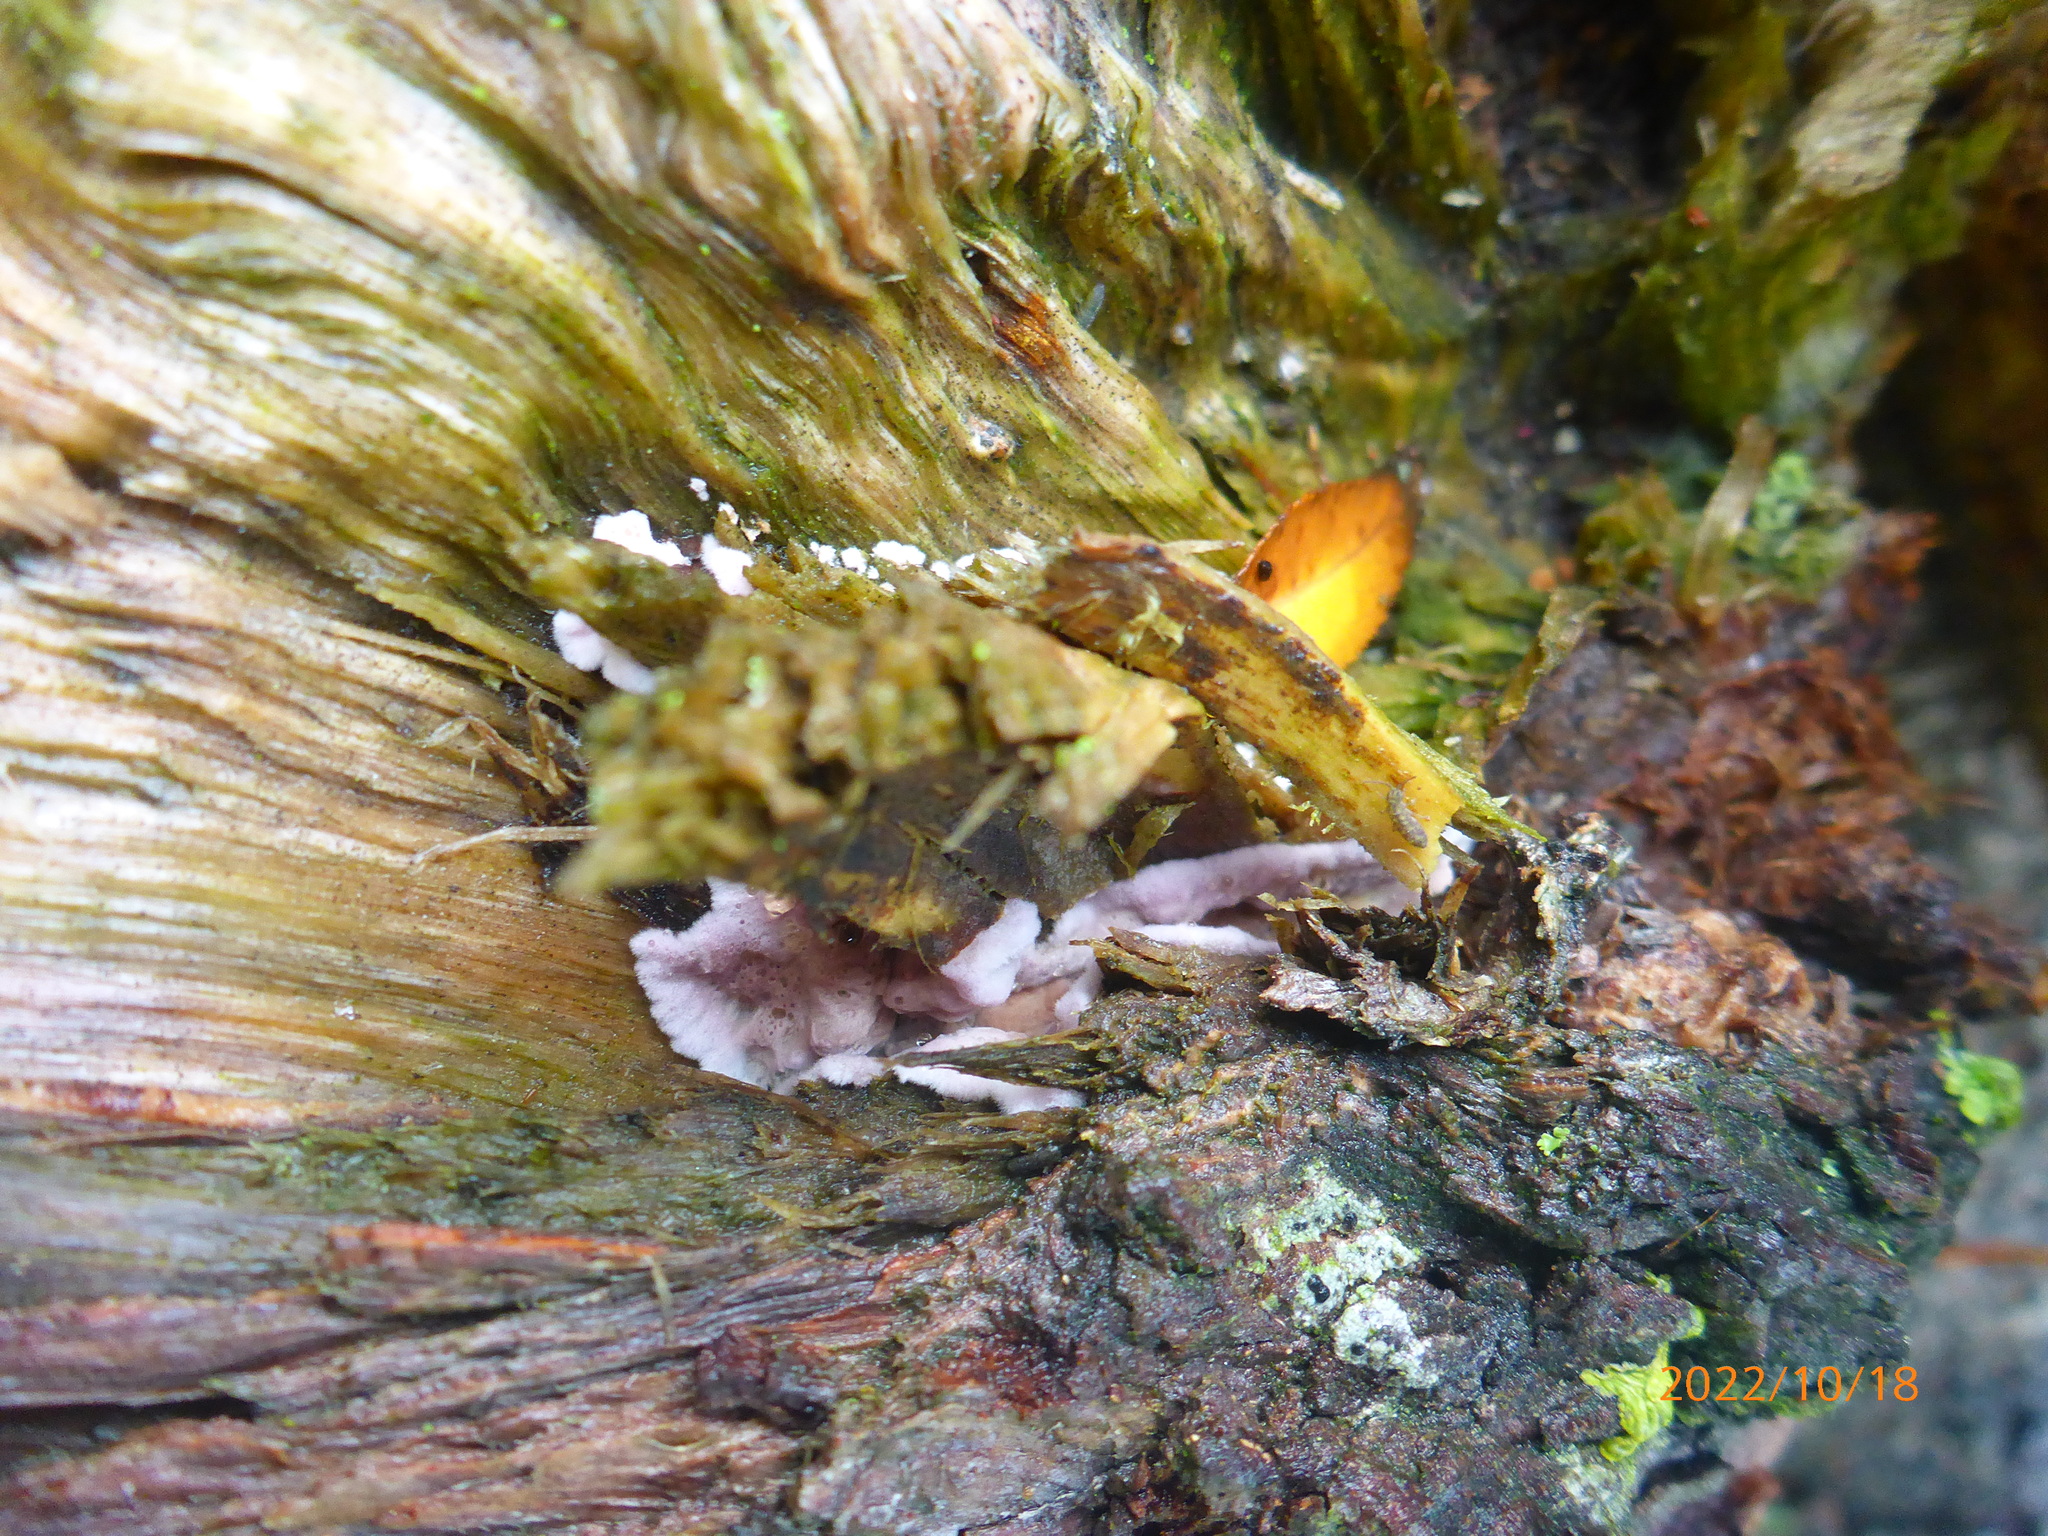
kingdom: Fungi
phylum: Basidiomycota
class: Agaricomycetes
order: Agaricales
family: Cyphellaceae
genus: Chondrostereum
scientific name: Chondrostereum purpureum
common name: Silver leaf disease
